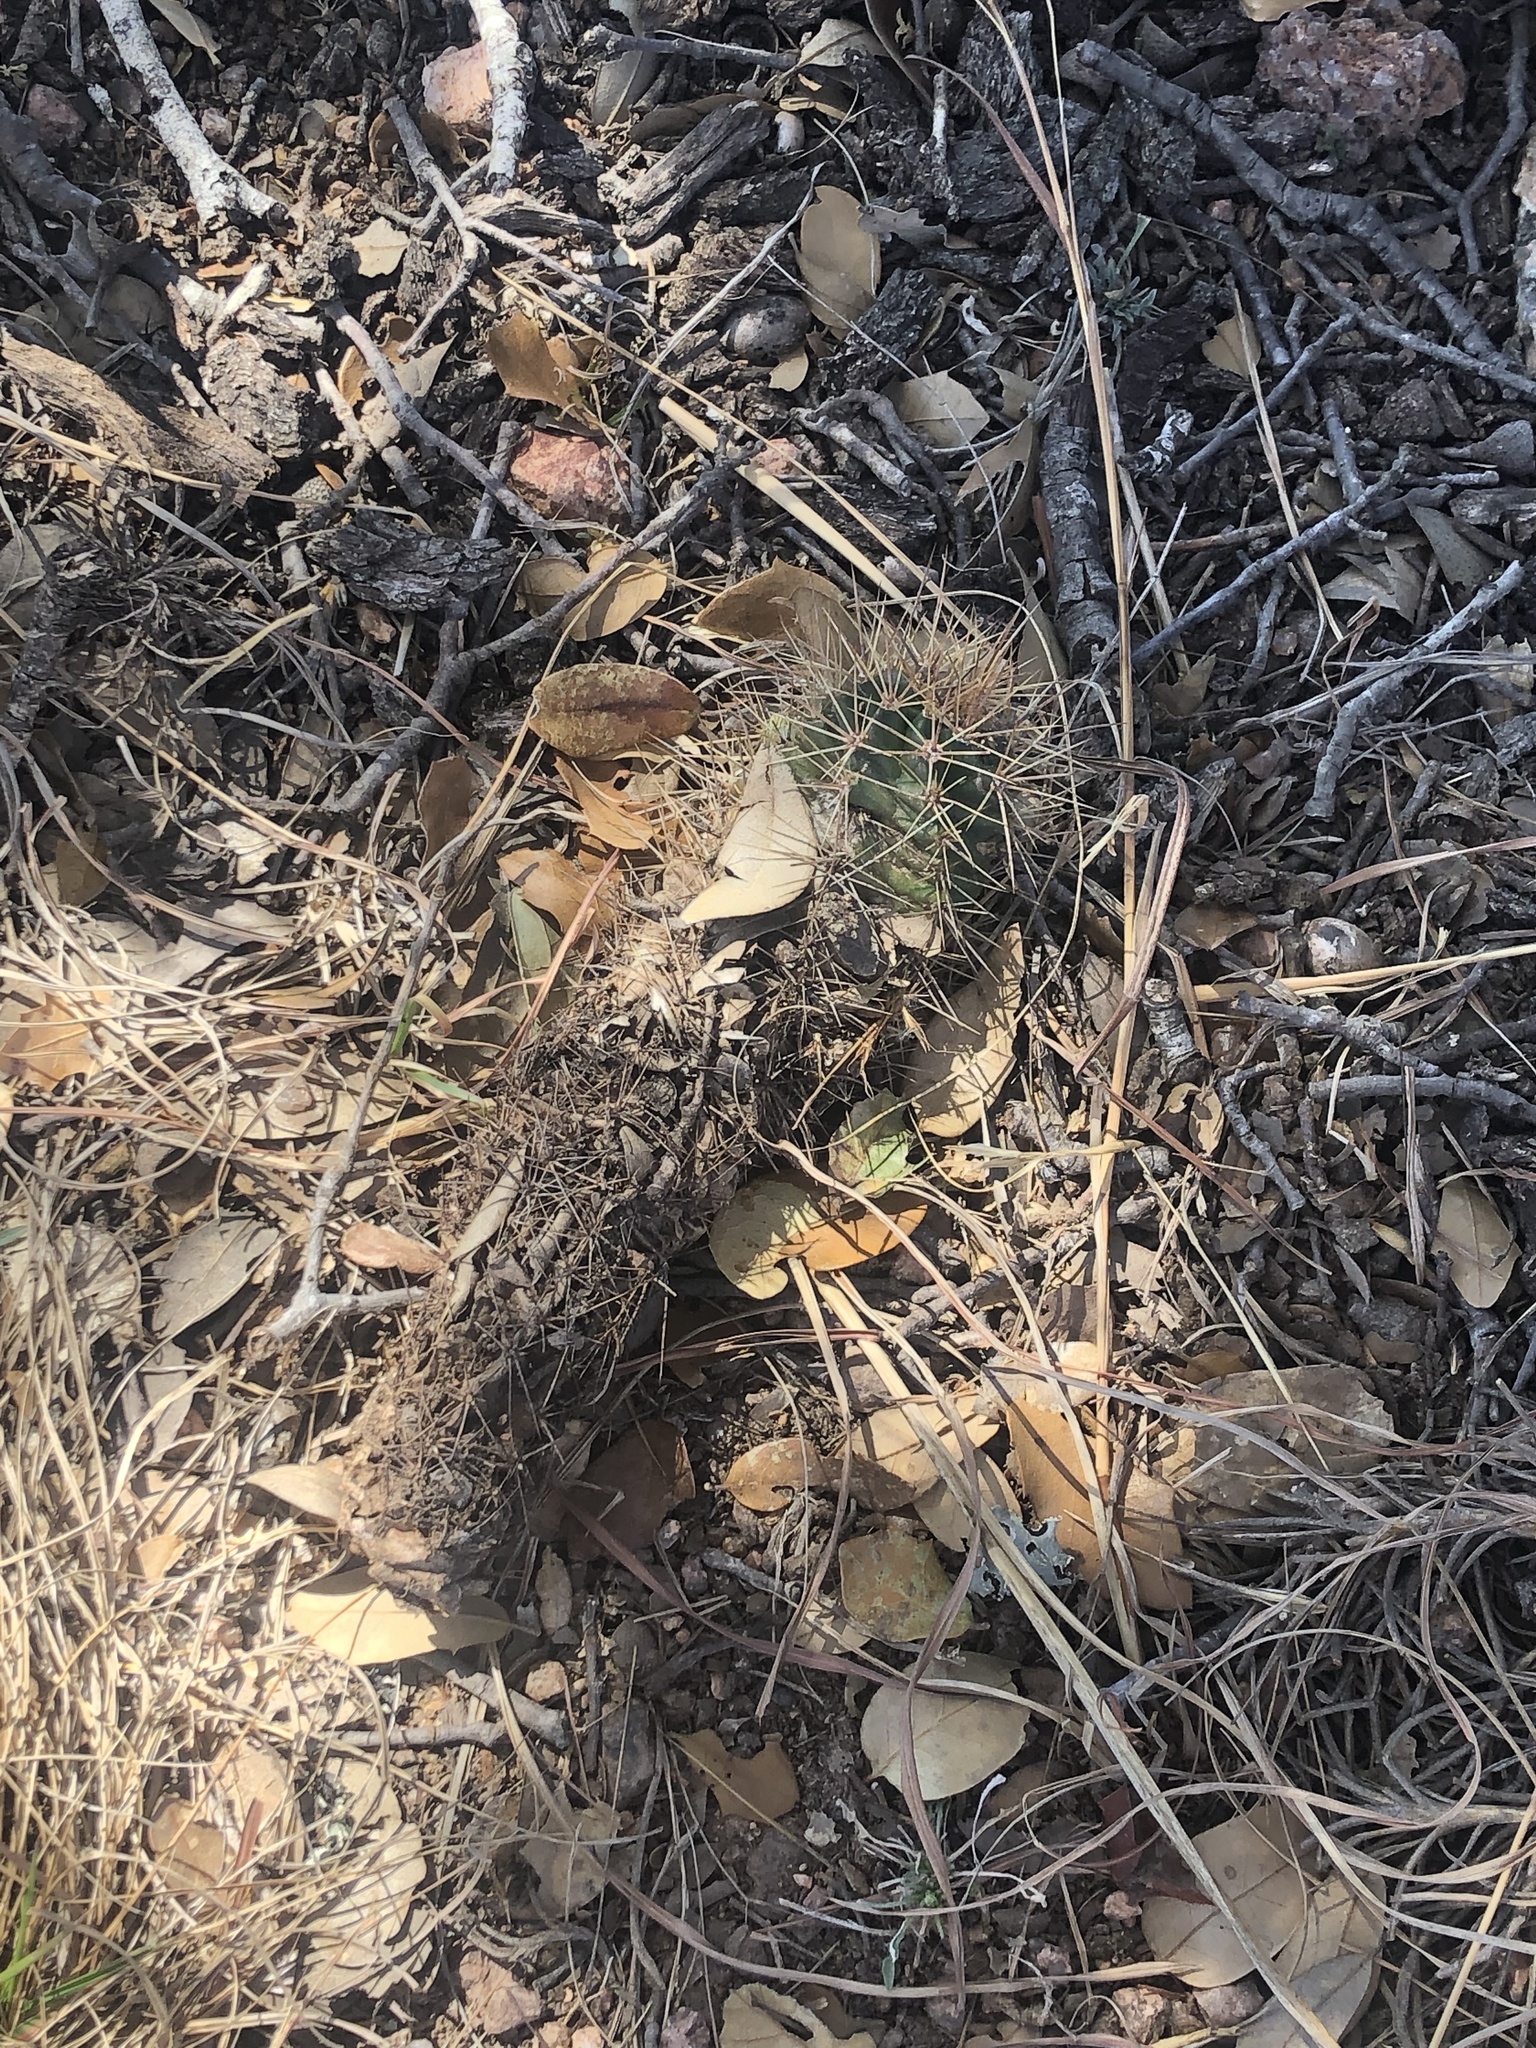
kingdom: Plantae
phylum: Tracheophyta
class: Magnoliopsida
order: Caryophyllales
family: Cactaceae
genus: Echinocereus
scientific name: Echinocereus coccineus
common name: Scarlet hedgehog cactus
